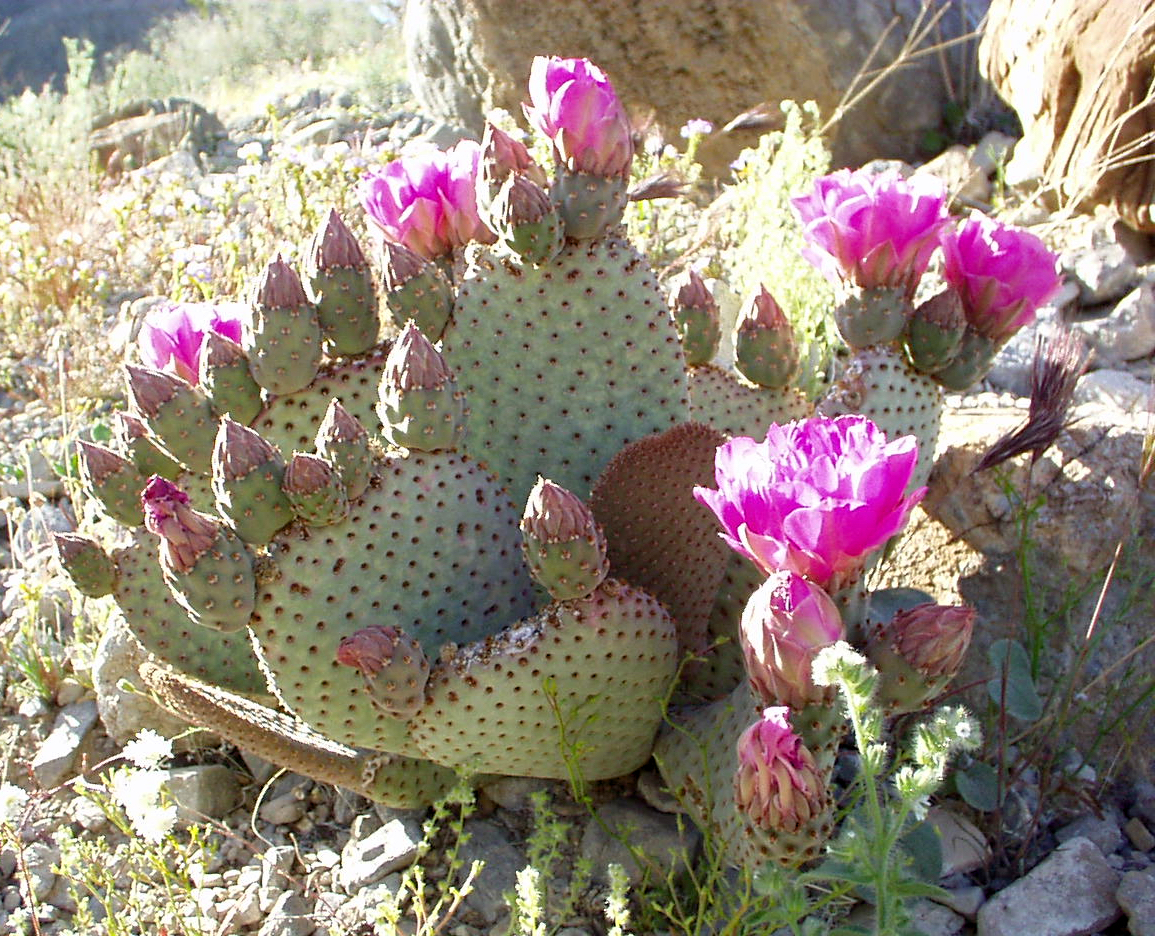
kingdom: Plantae
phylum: Tracheophyta
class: Magnoliopsida
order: Caryophyllales
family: Cactaceae
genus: Opuntia
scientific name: Opuntia basilaris
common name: Beavertail prickly-pear
